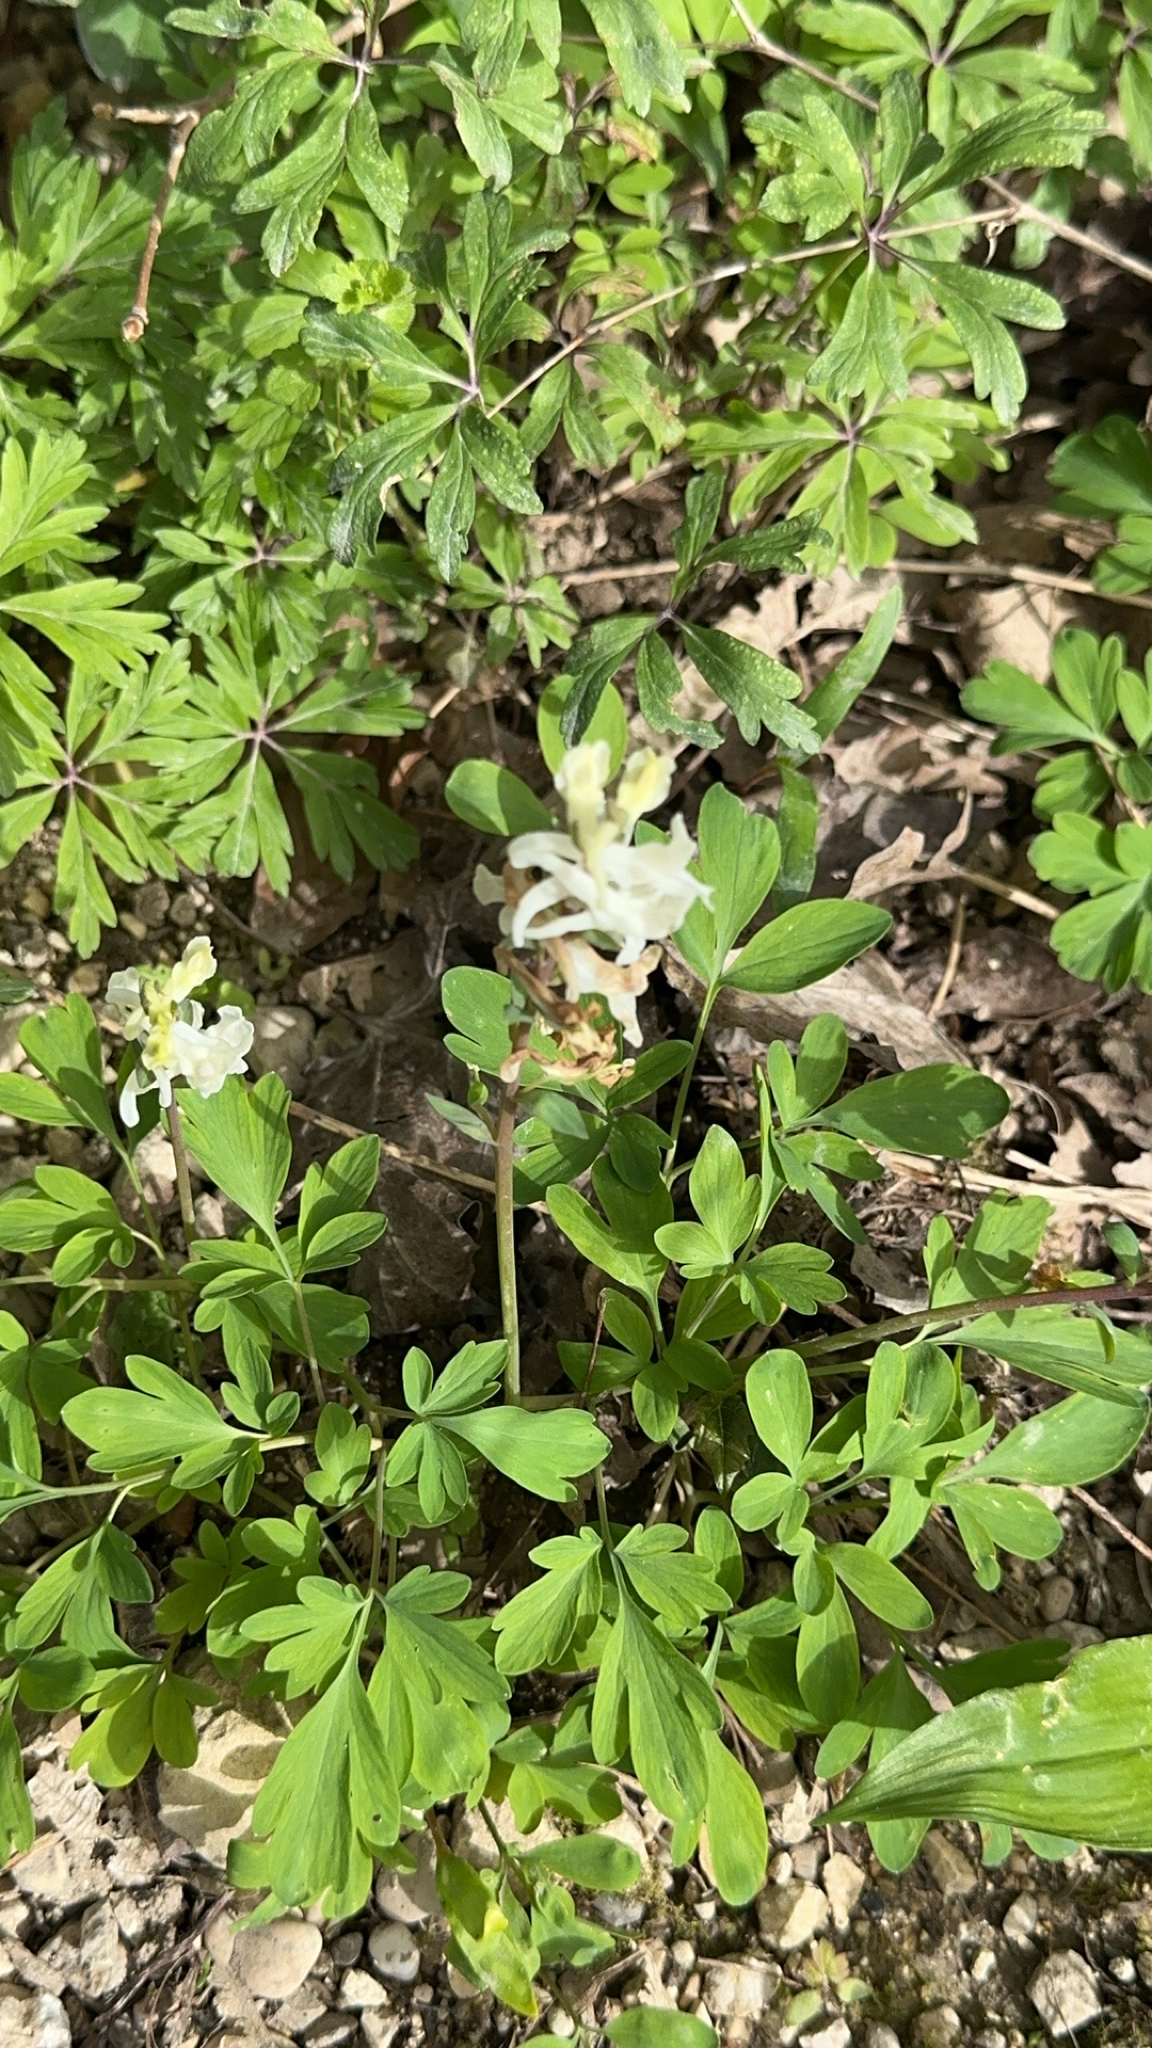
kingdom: Plantae
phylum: Tracheophyta
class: Magnoliopsida
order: Ranunculales
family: Papaveraceae
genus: Corydalis
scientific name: Corydalis cava
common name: Hollowroot
